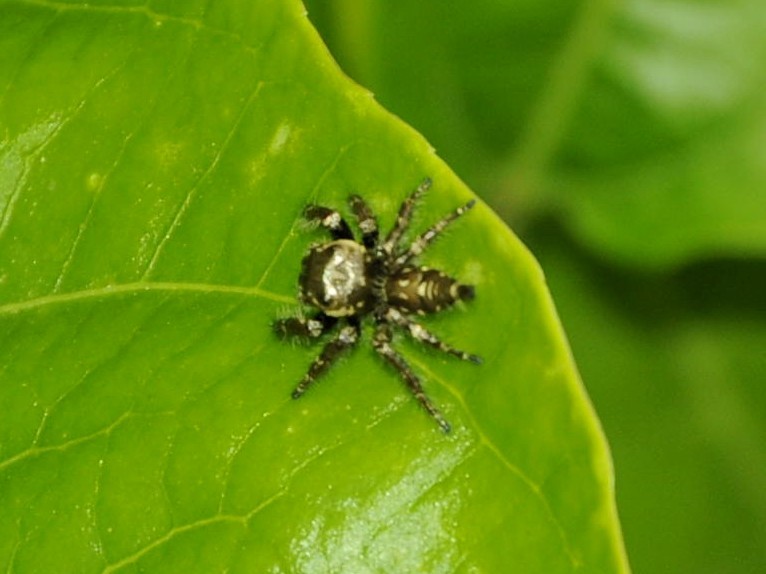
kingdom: Animalia
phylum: Arthropoda
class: Arachnida
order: Araneae
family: Salticidae
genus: Hyllus
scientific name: Hyllus semicupreus
